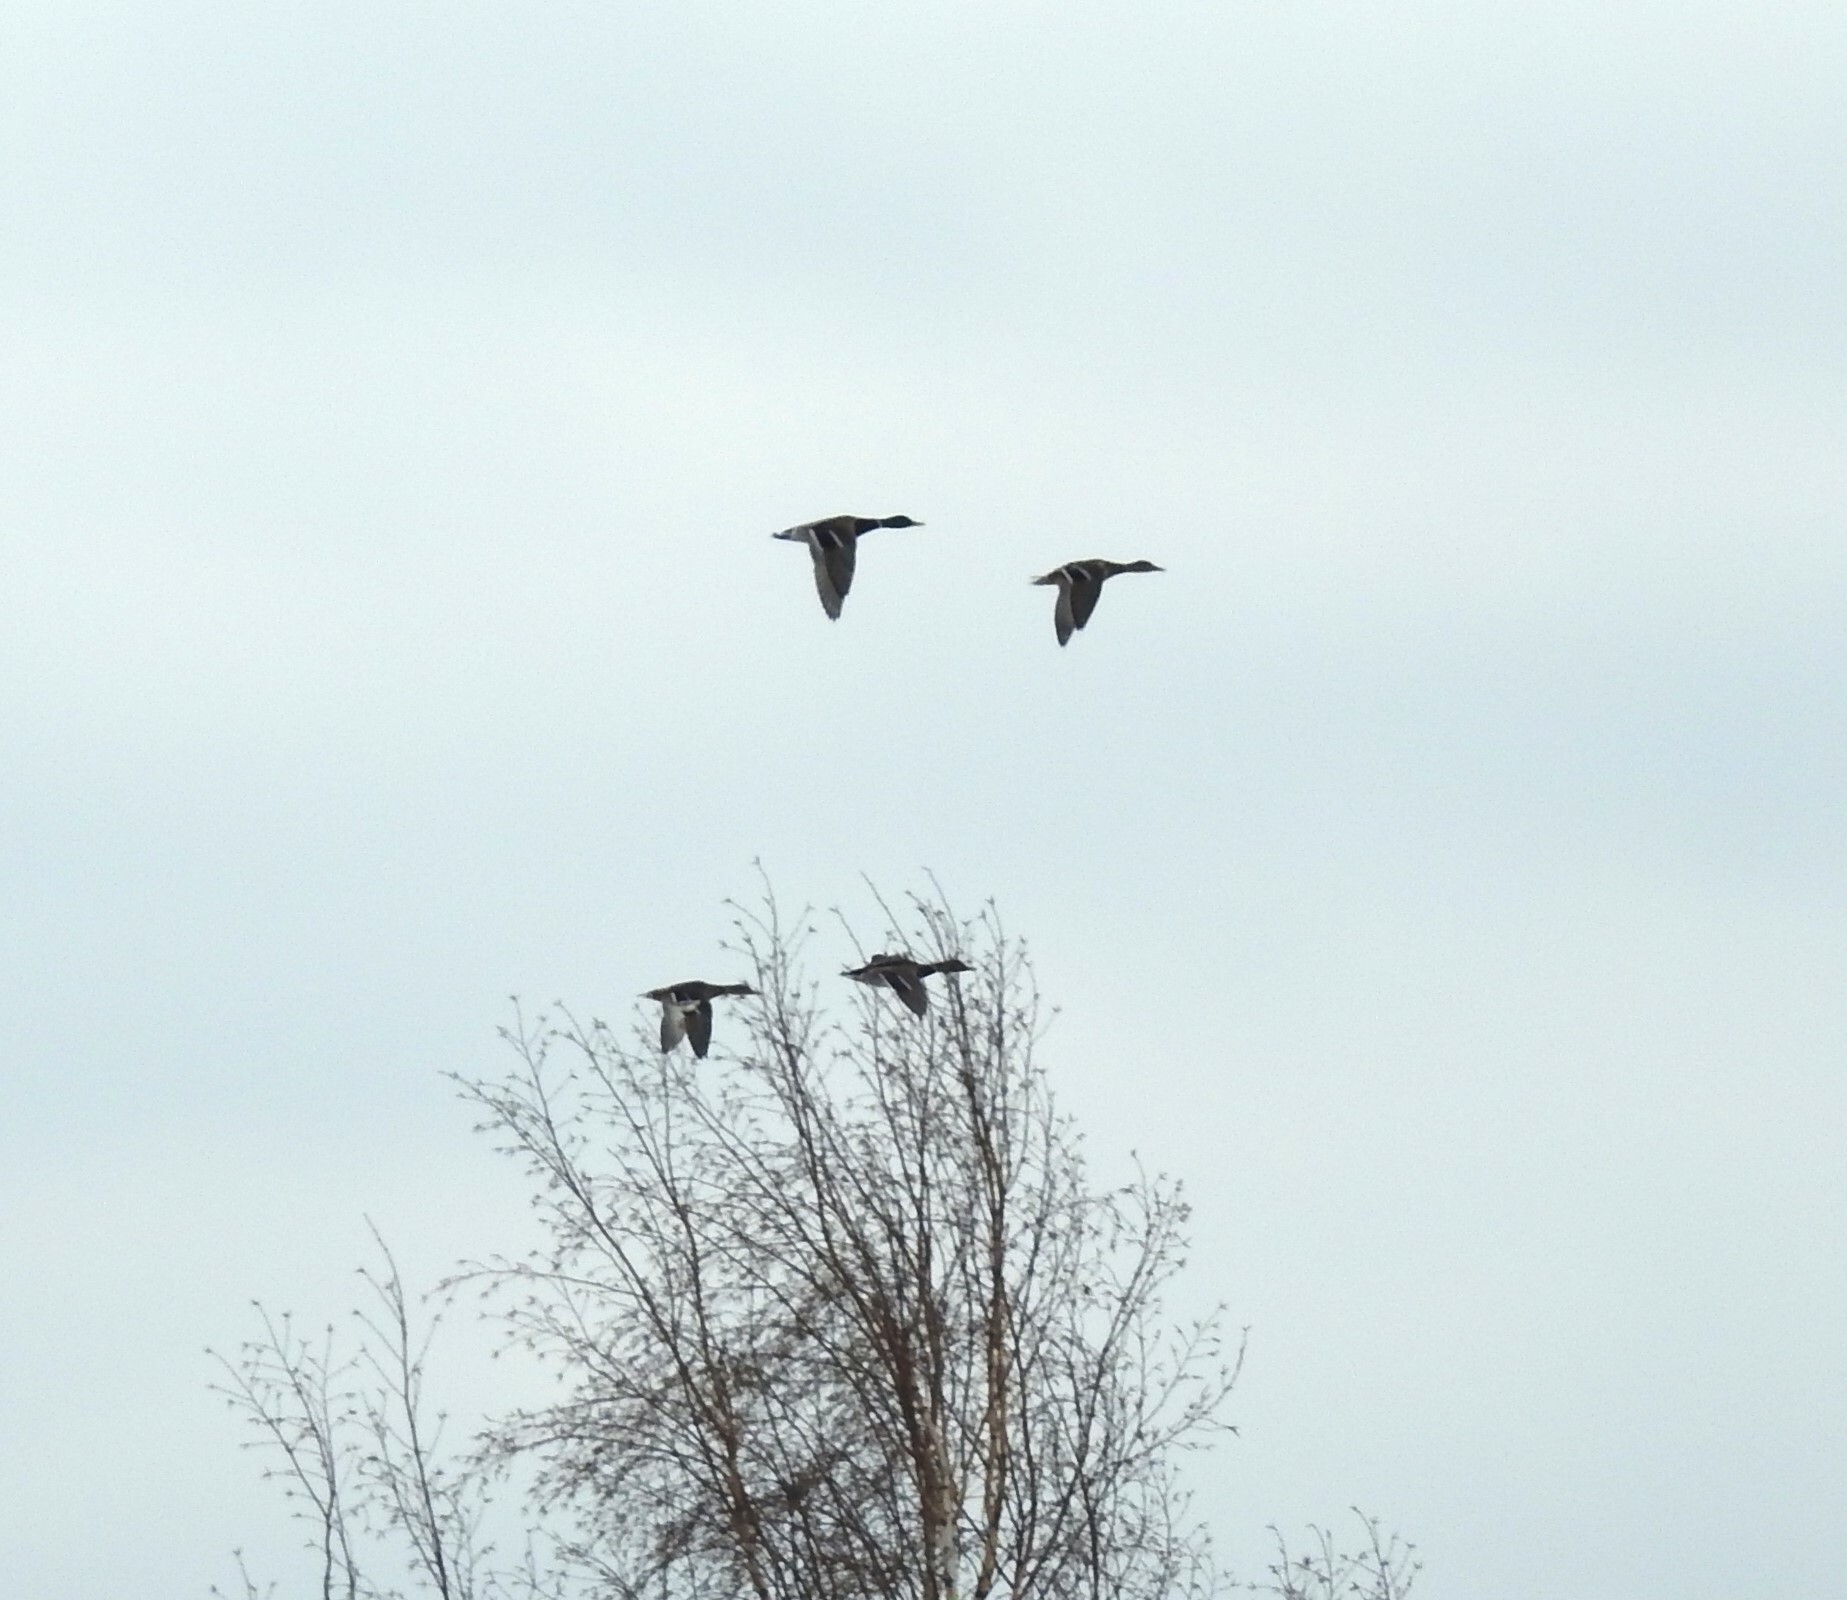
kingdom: Animalia
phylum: Chordata
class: Aves
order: Anseriformes
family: Anatidae
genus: Anas
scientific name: Anas platyrhynchos
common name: Mallard
